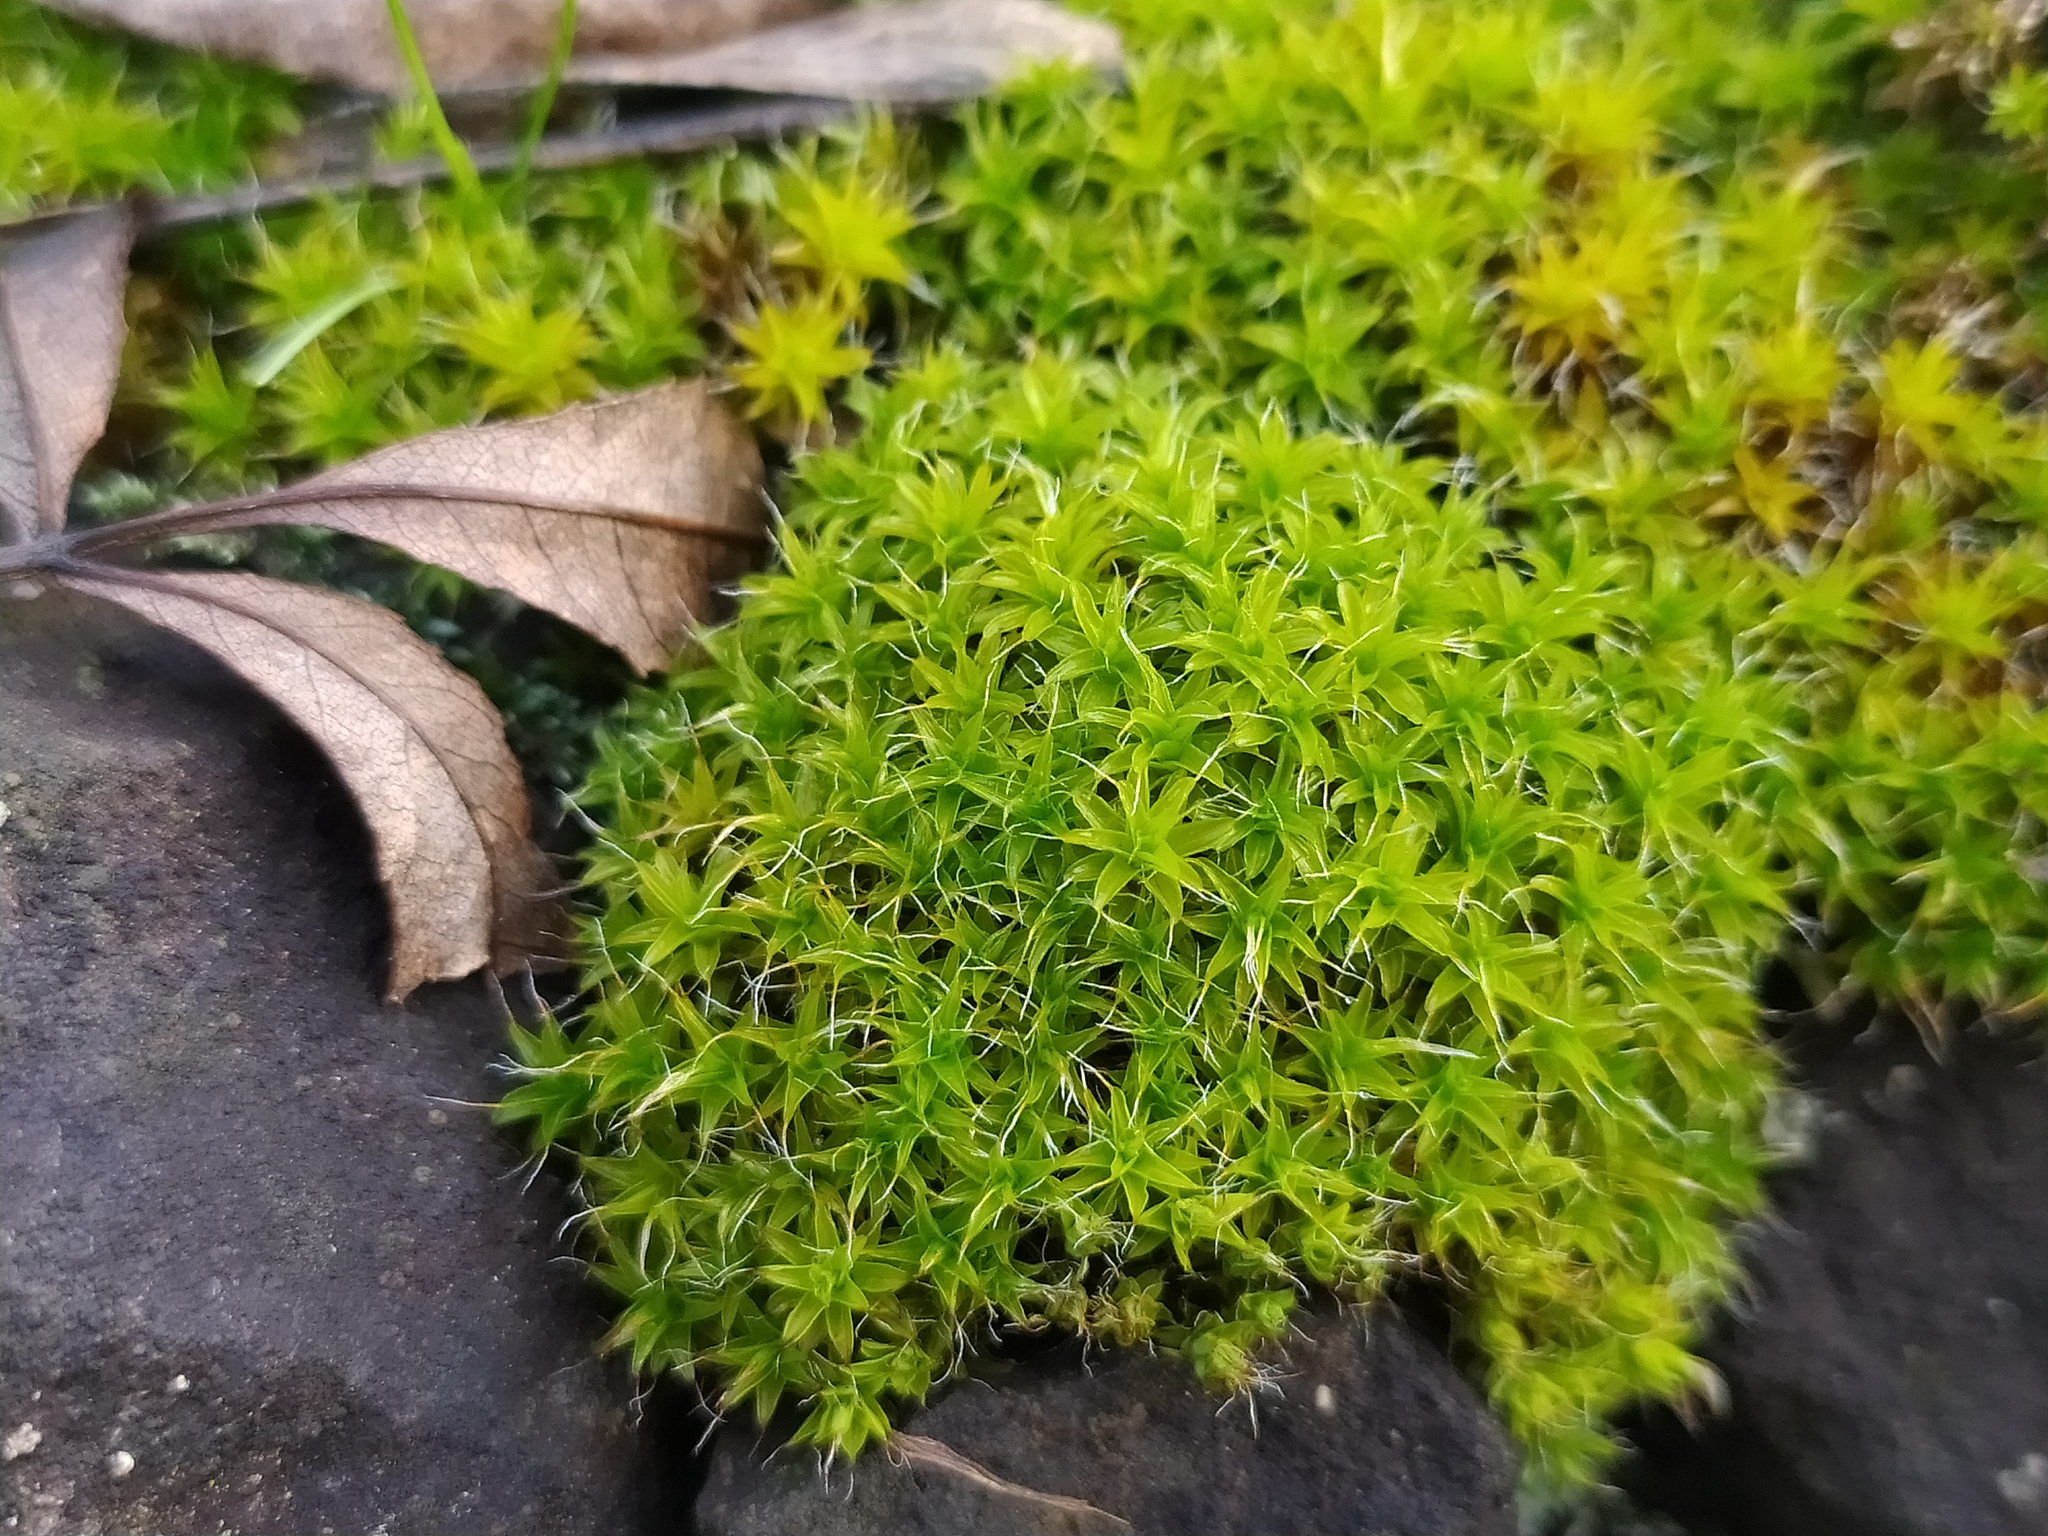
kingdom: Plantae
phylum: Bryophyta
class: Bryopsida
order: Pottiales
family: Pottiaceae
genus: Syntrichia
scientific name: Syntrichia ruralis
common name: Sidewalk screw moss
